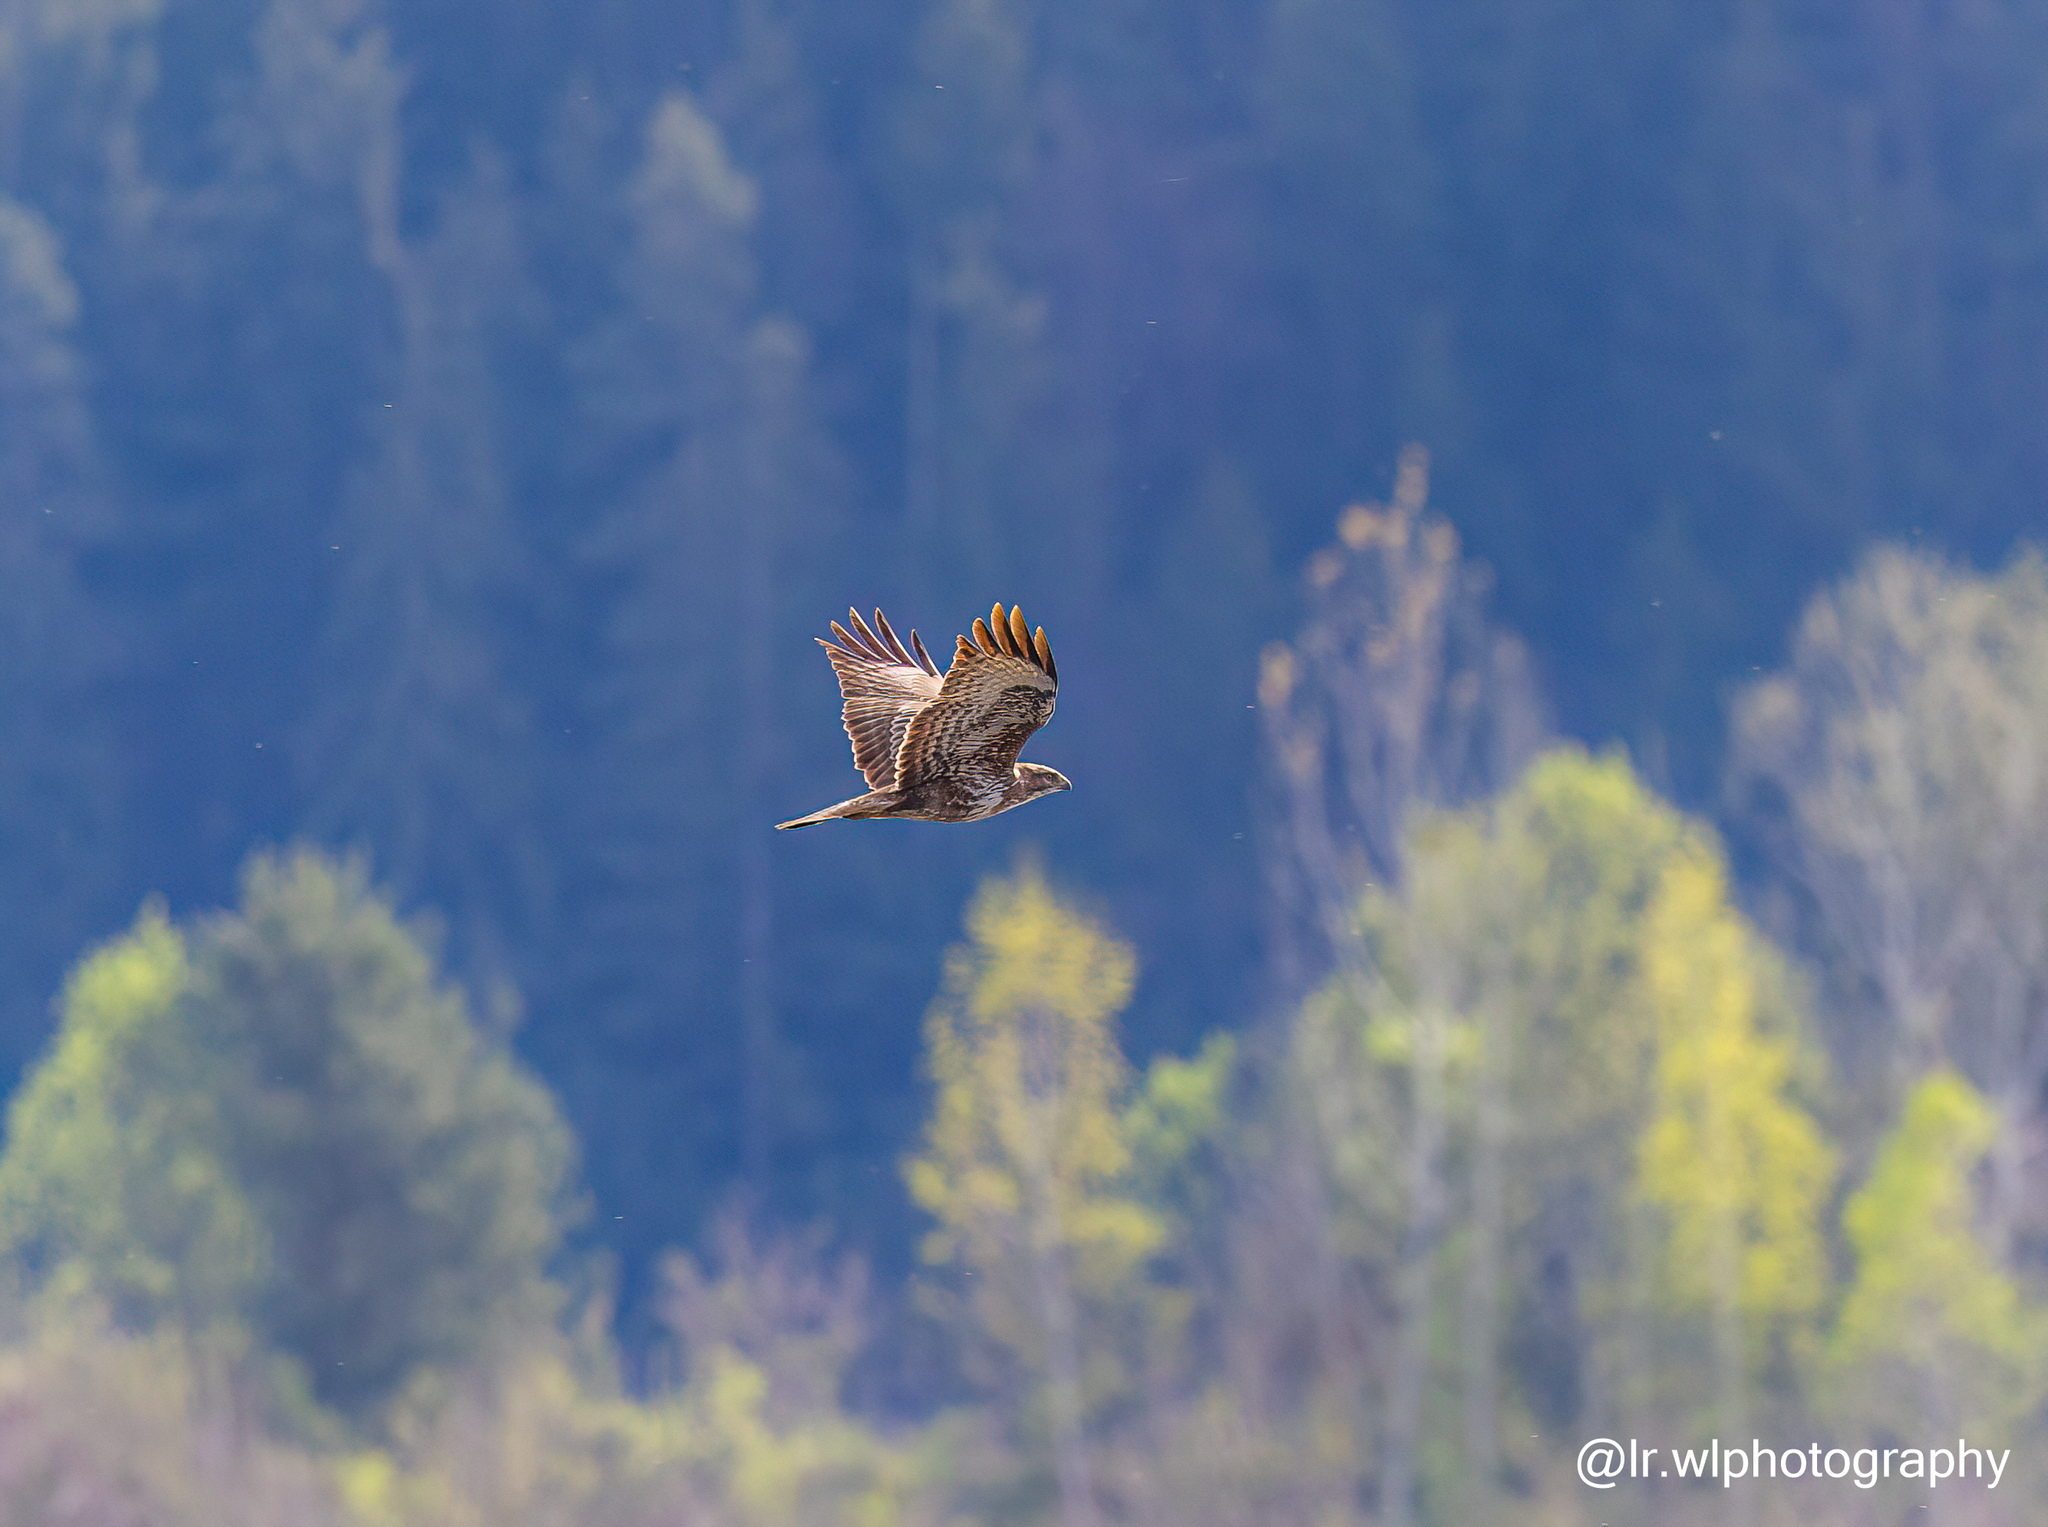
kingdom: Animalia
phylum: Chordata
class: Aves
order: Accipitriformes
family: Accipitridae
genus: Buteo
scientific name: Buteo buteo
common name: Common buzzard
